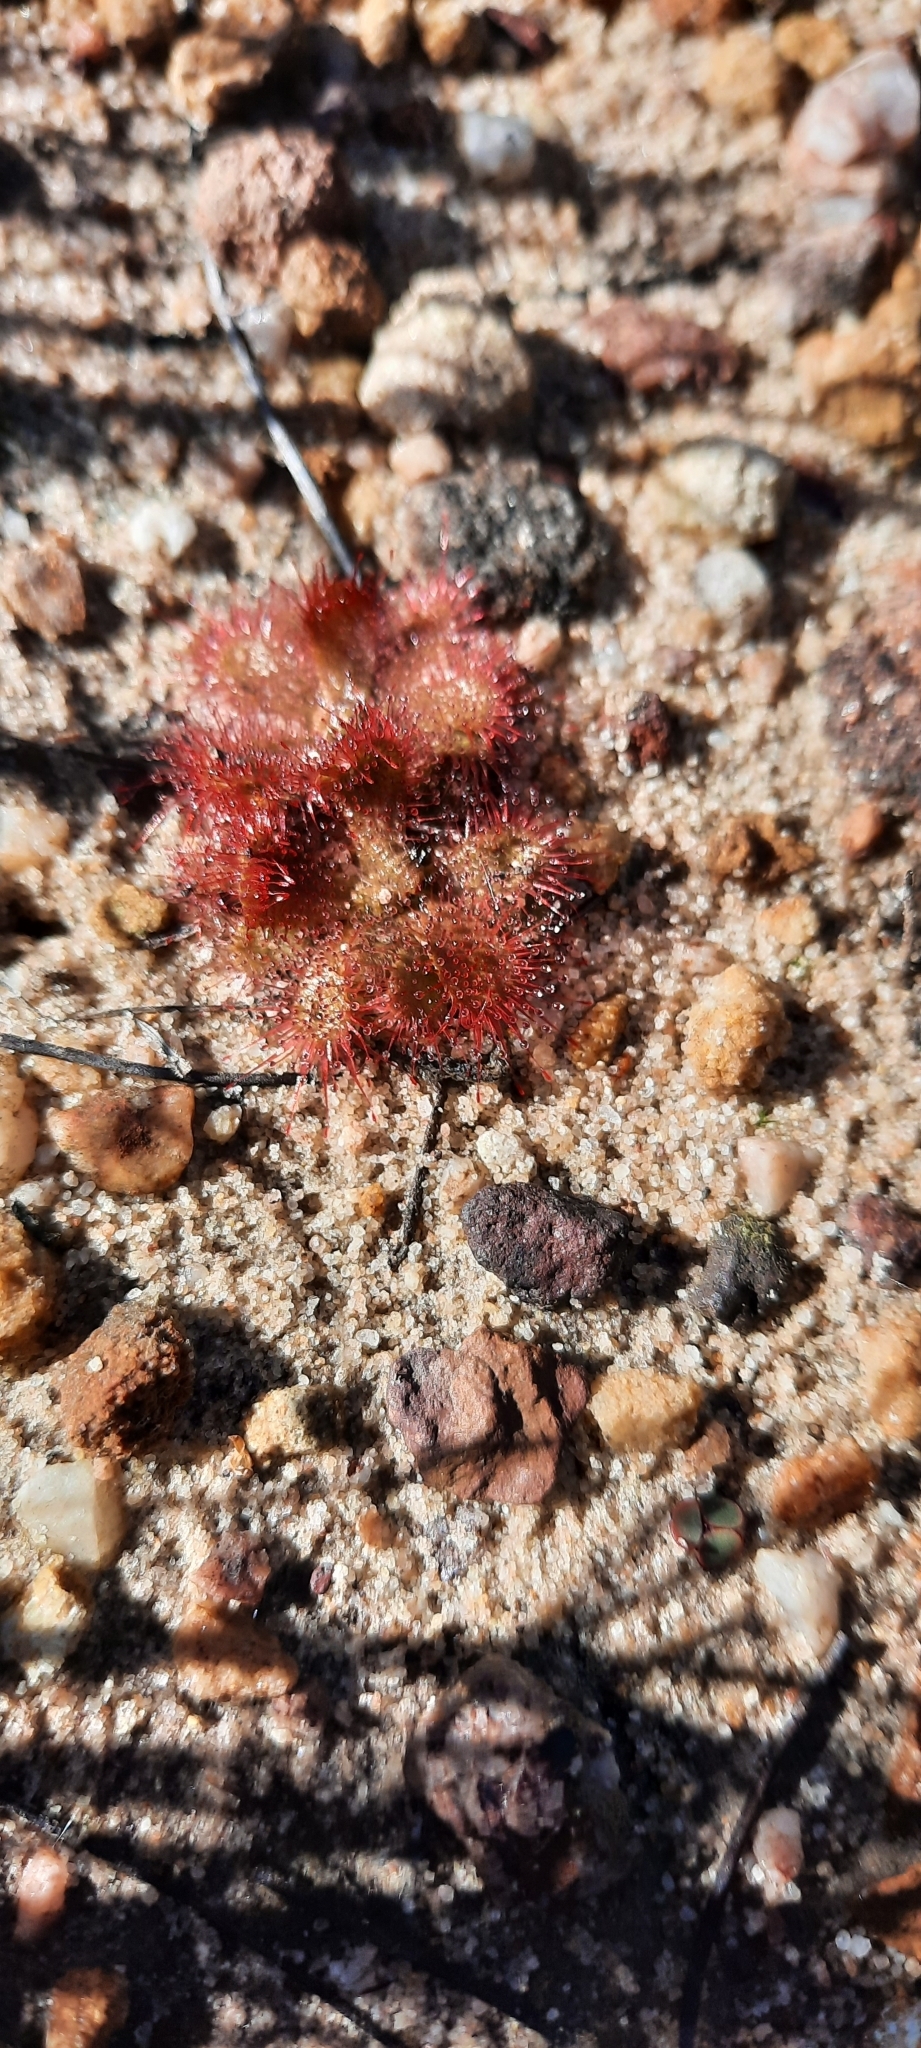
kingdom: Plantae
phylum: Tracheophyta
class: Magnoliopsida
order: Caryophyllales
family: Droseraceae
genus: Drosera
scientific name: Drosera trinervia
